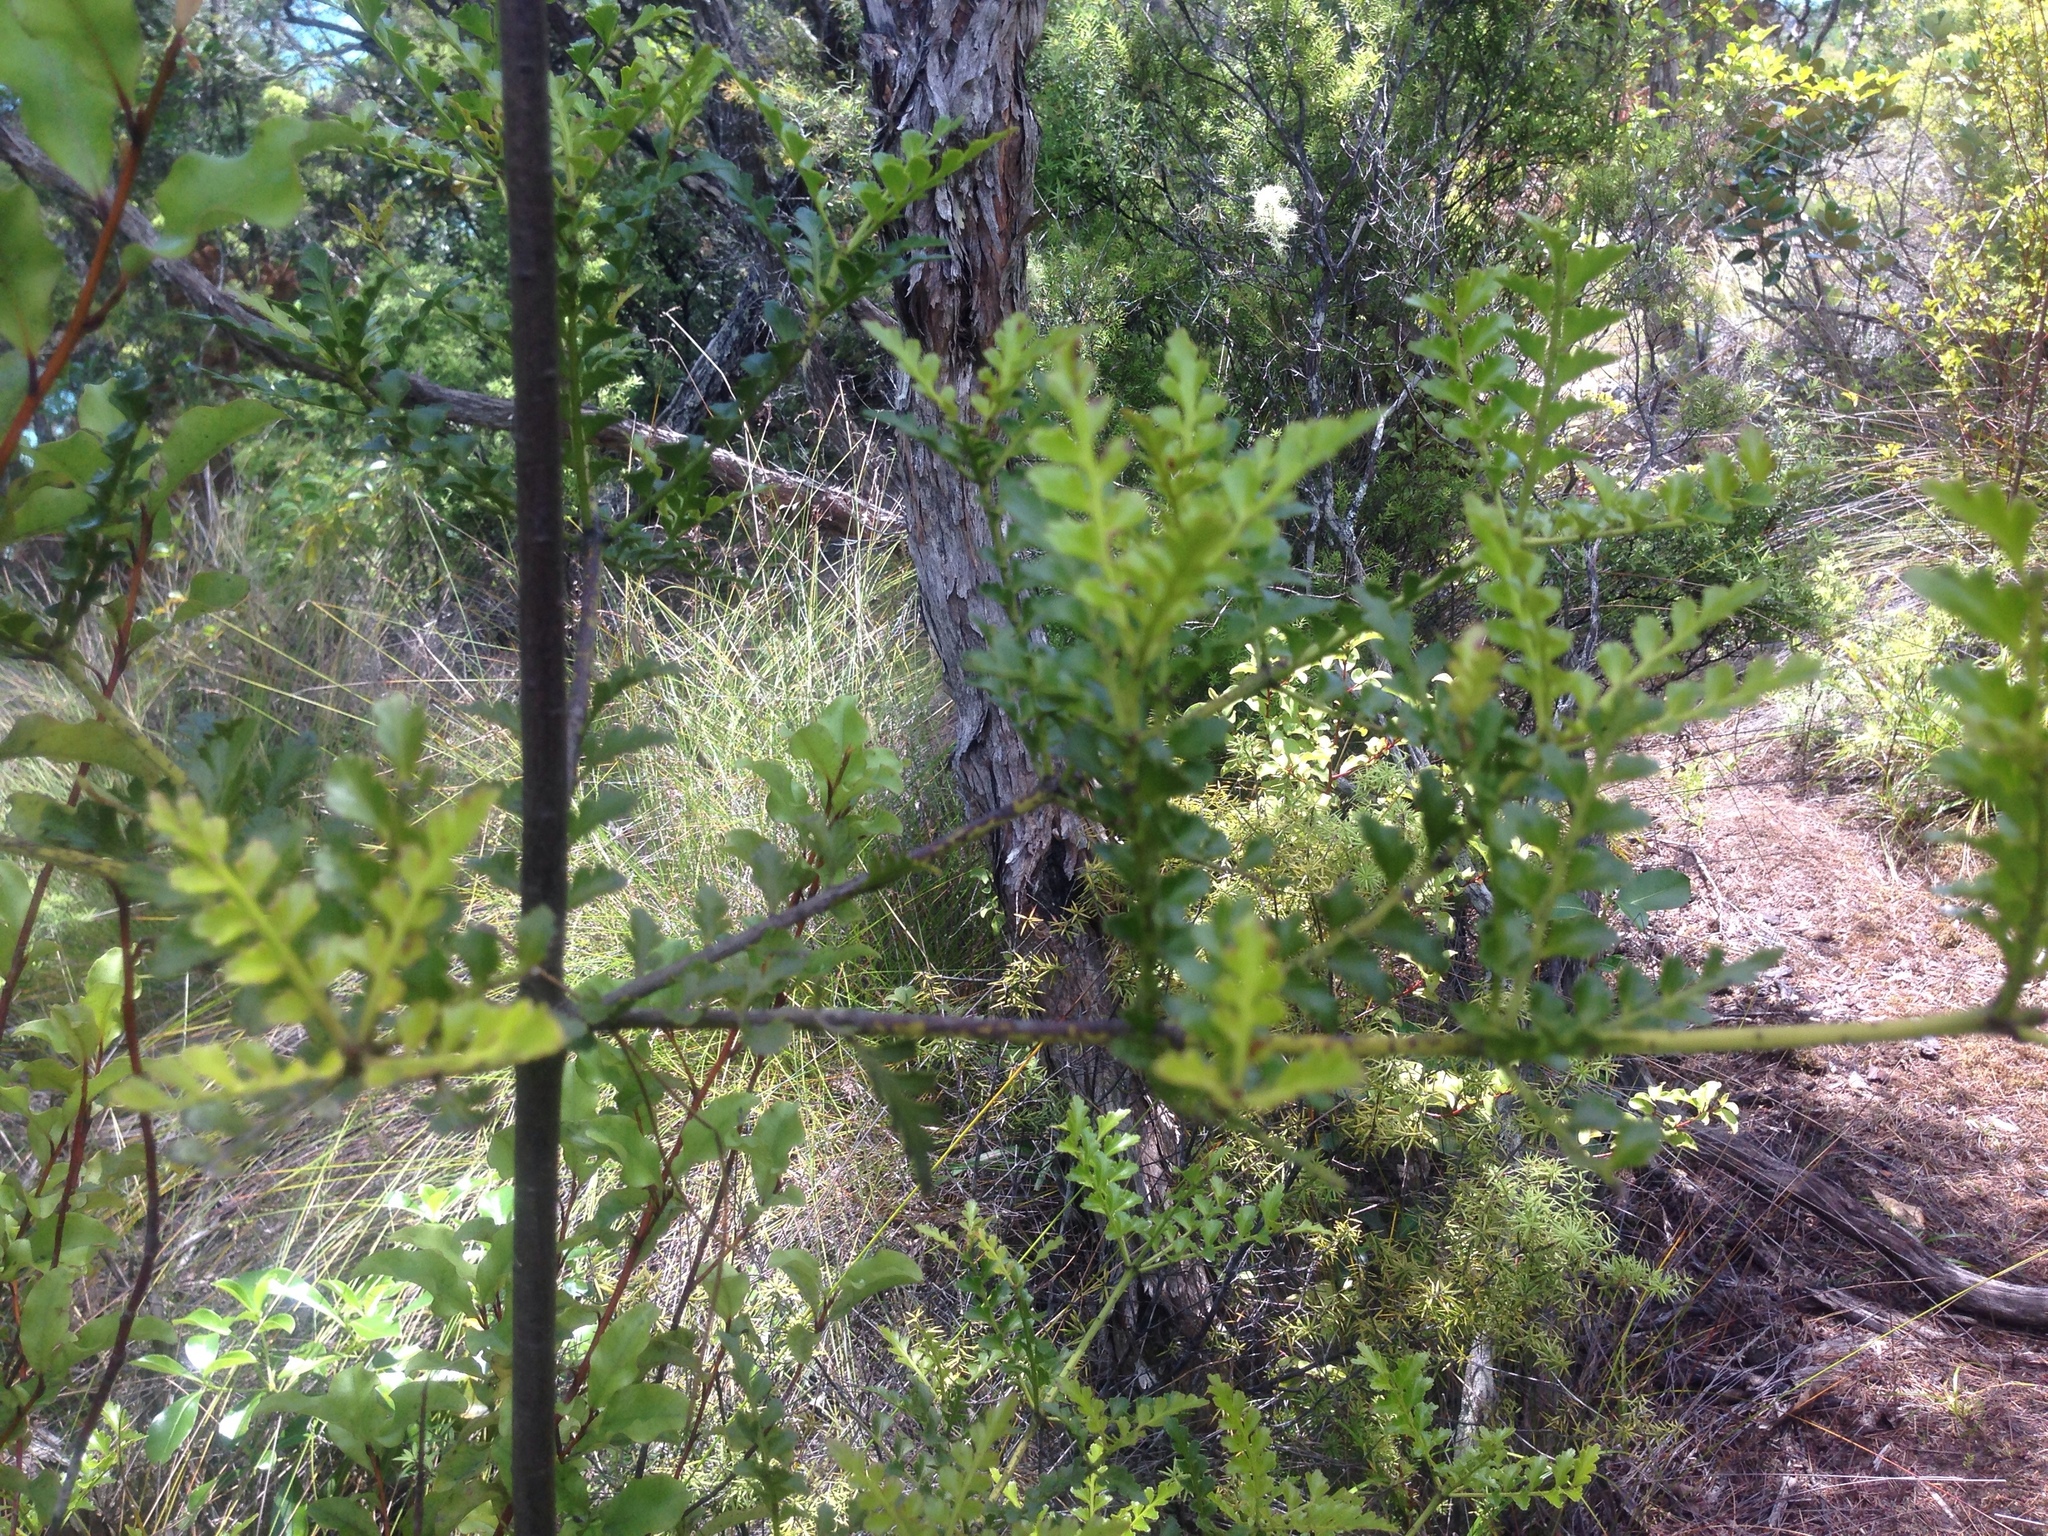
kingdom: Plantae
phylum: Tracheophyta
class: Pinopsida
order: Pinales
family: Phyllocladaceae
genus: Phyllocladus
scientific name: Phyllocladus trichomanoides
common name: Celery pine
